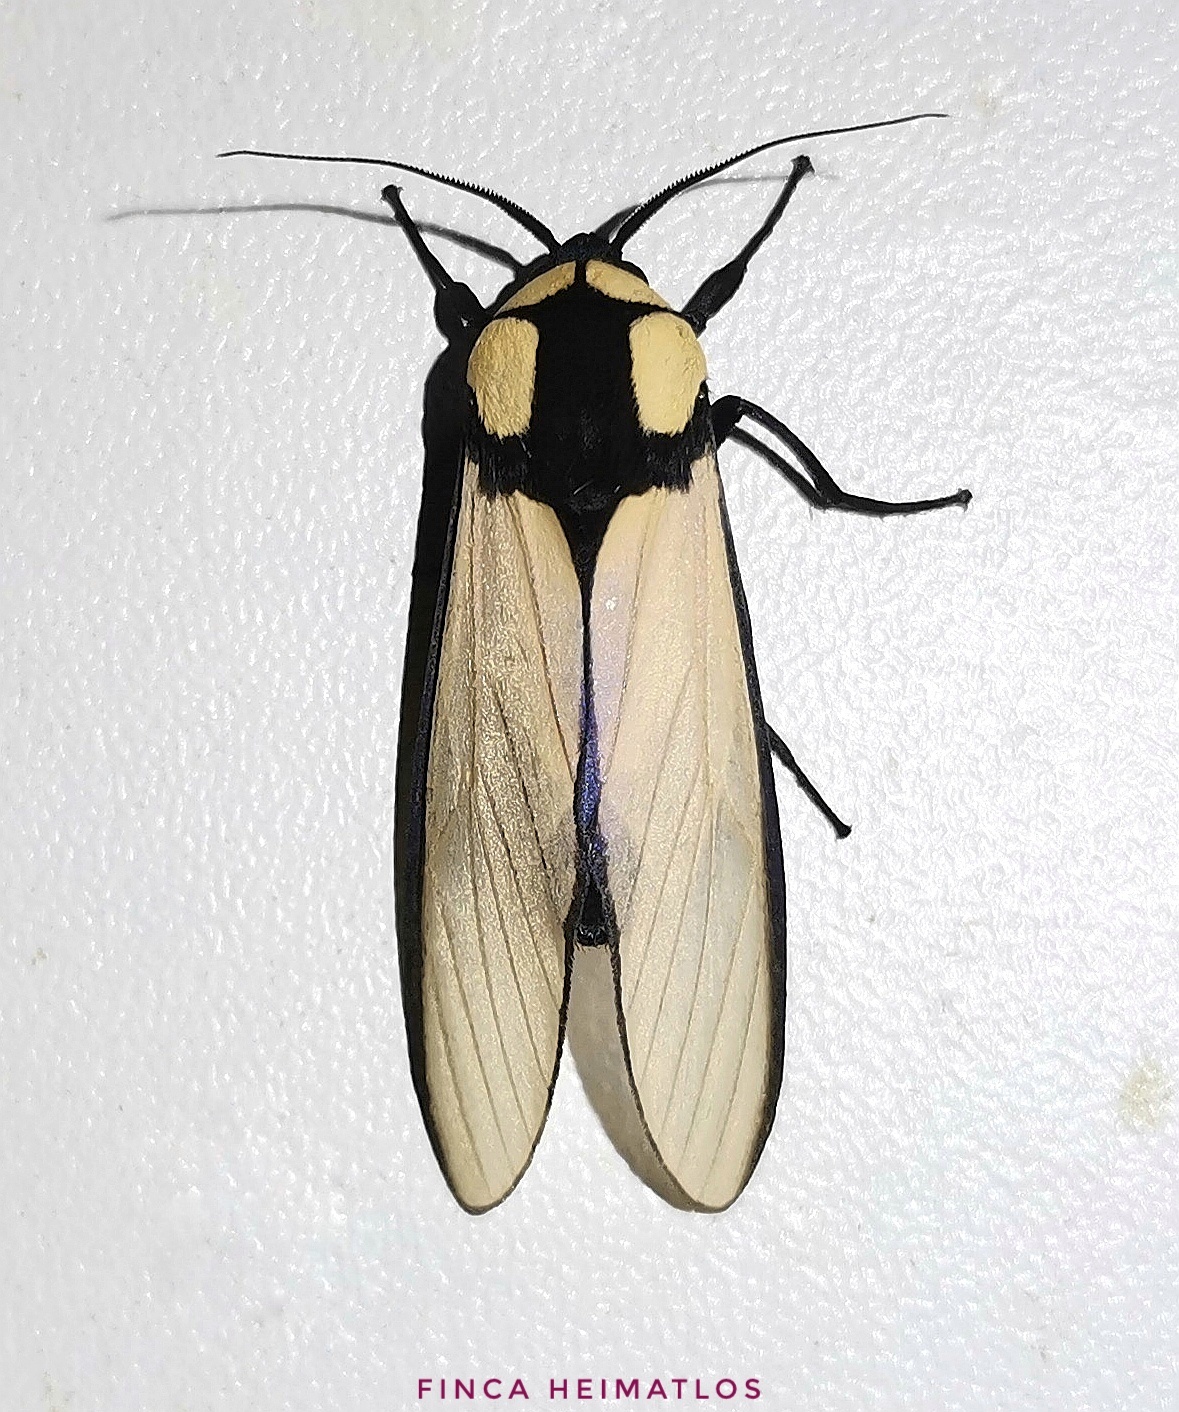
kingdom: Animalia
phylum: Arthropoda
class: Insecta
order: Lepidoptera
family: Erebidae
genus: Machaeraptenus
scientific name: Machaeraptenus ventralis
